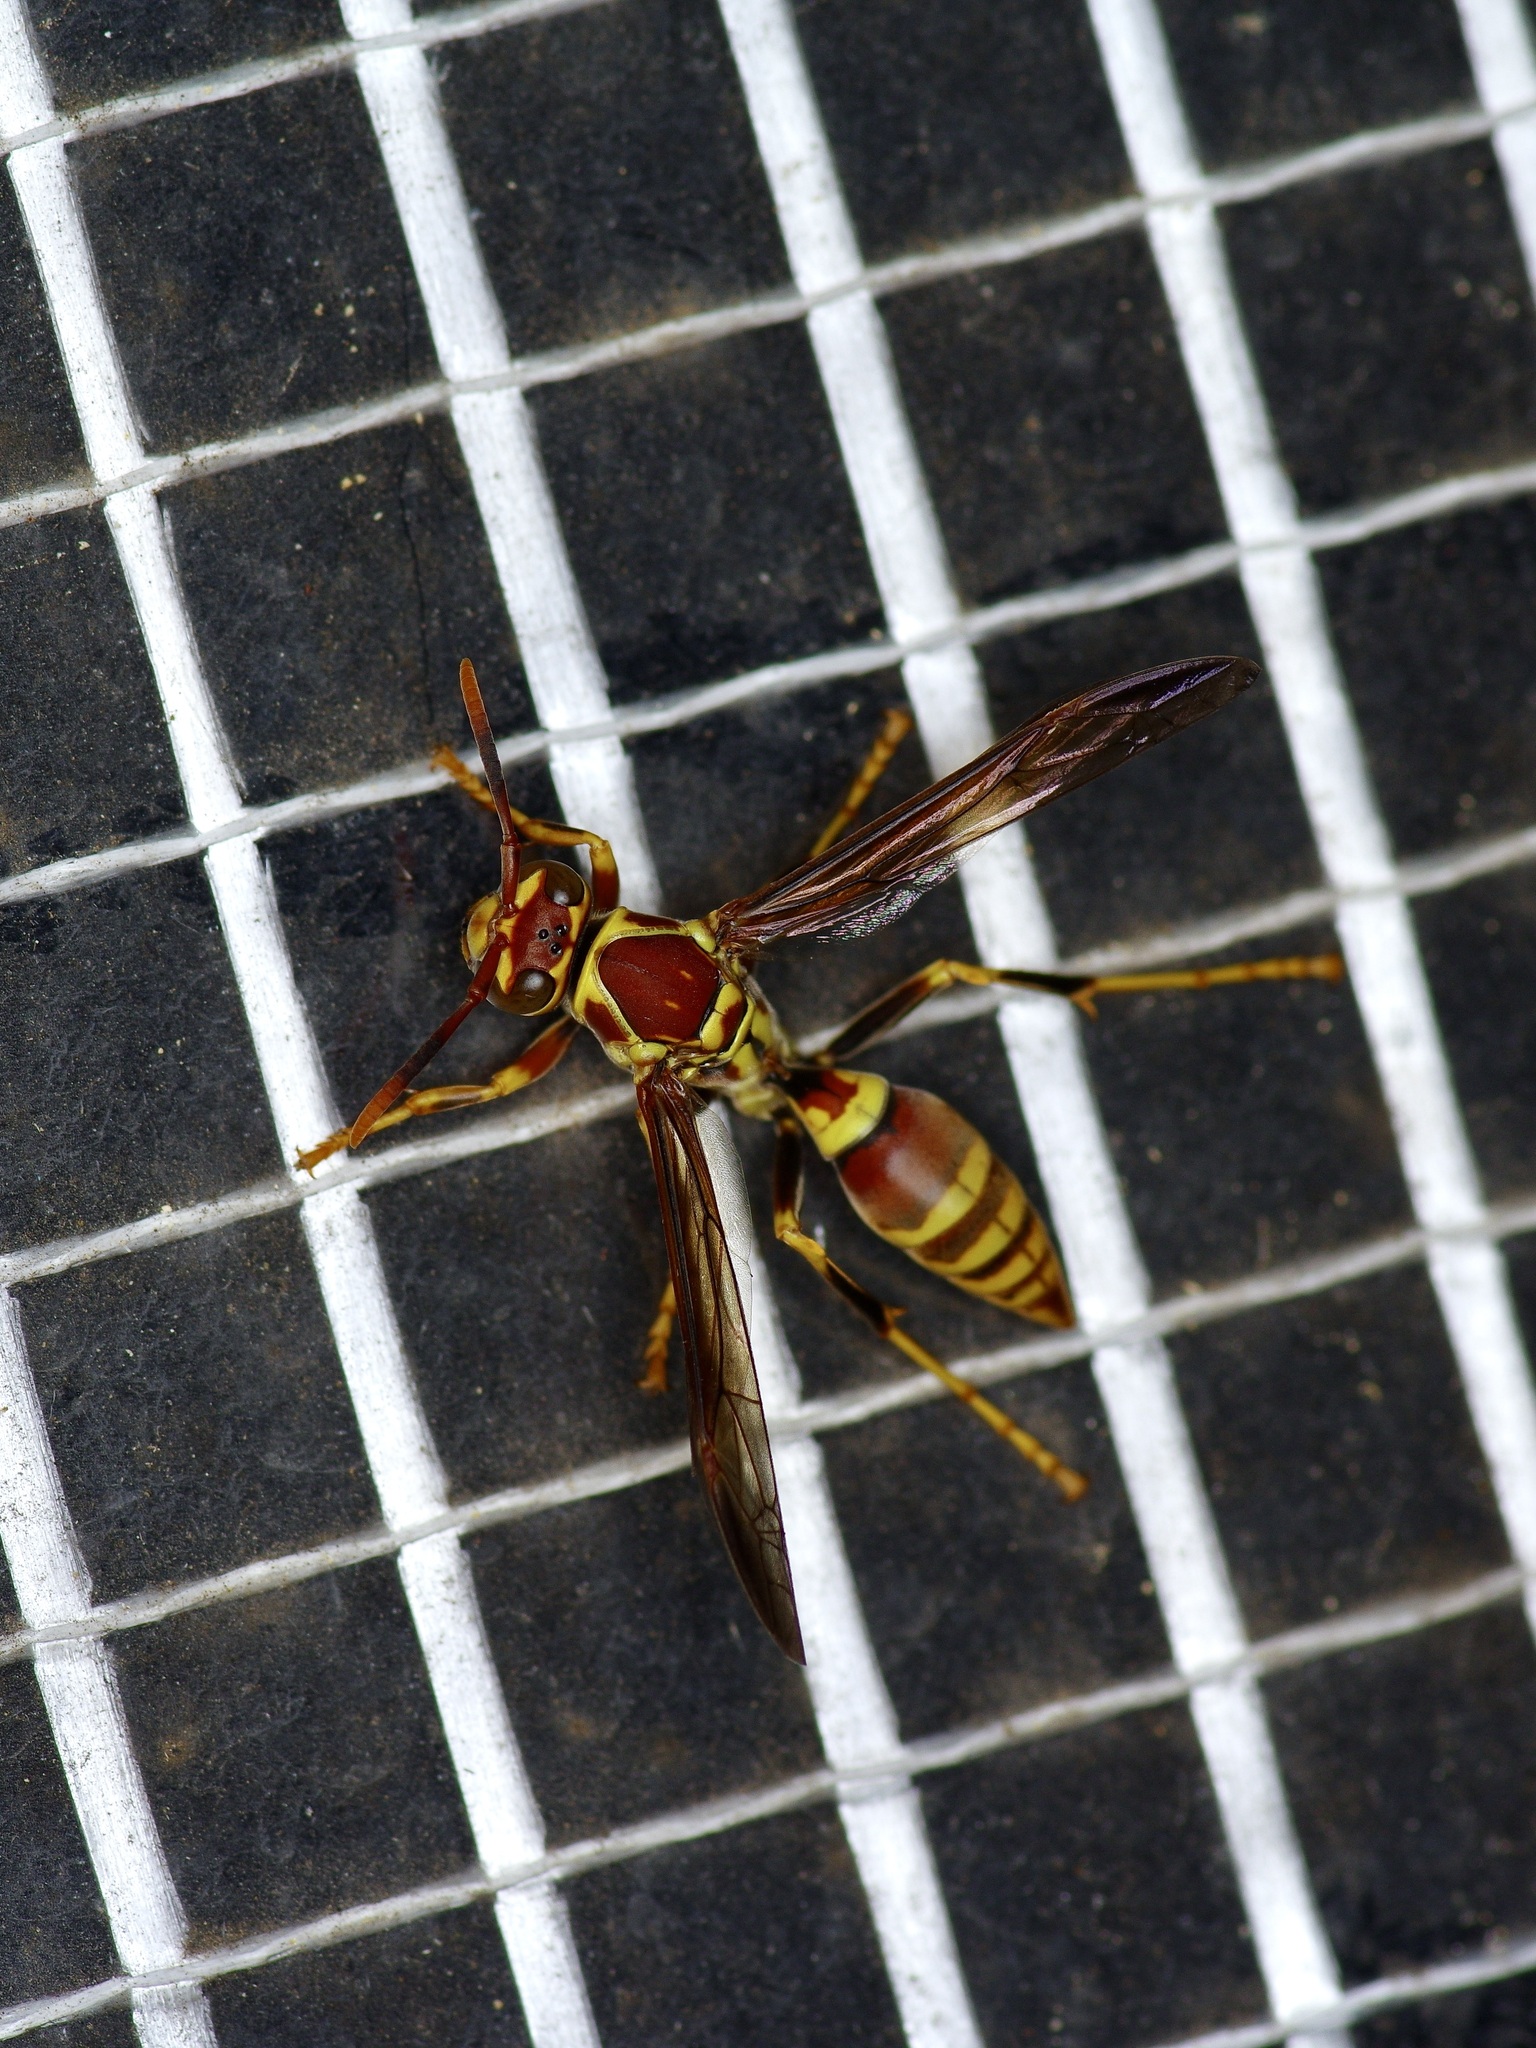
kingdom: Animalia
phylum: Arthropoda
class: Insecta
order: Hymenoptera
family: Eumenidae
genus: Polistes
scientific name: Polistes exclamans
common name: Paper wasp
